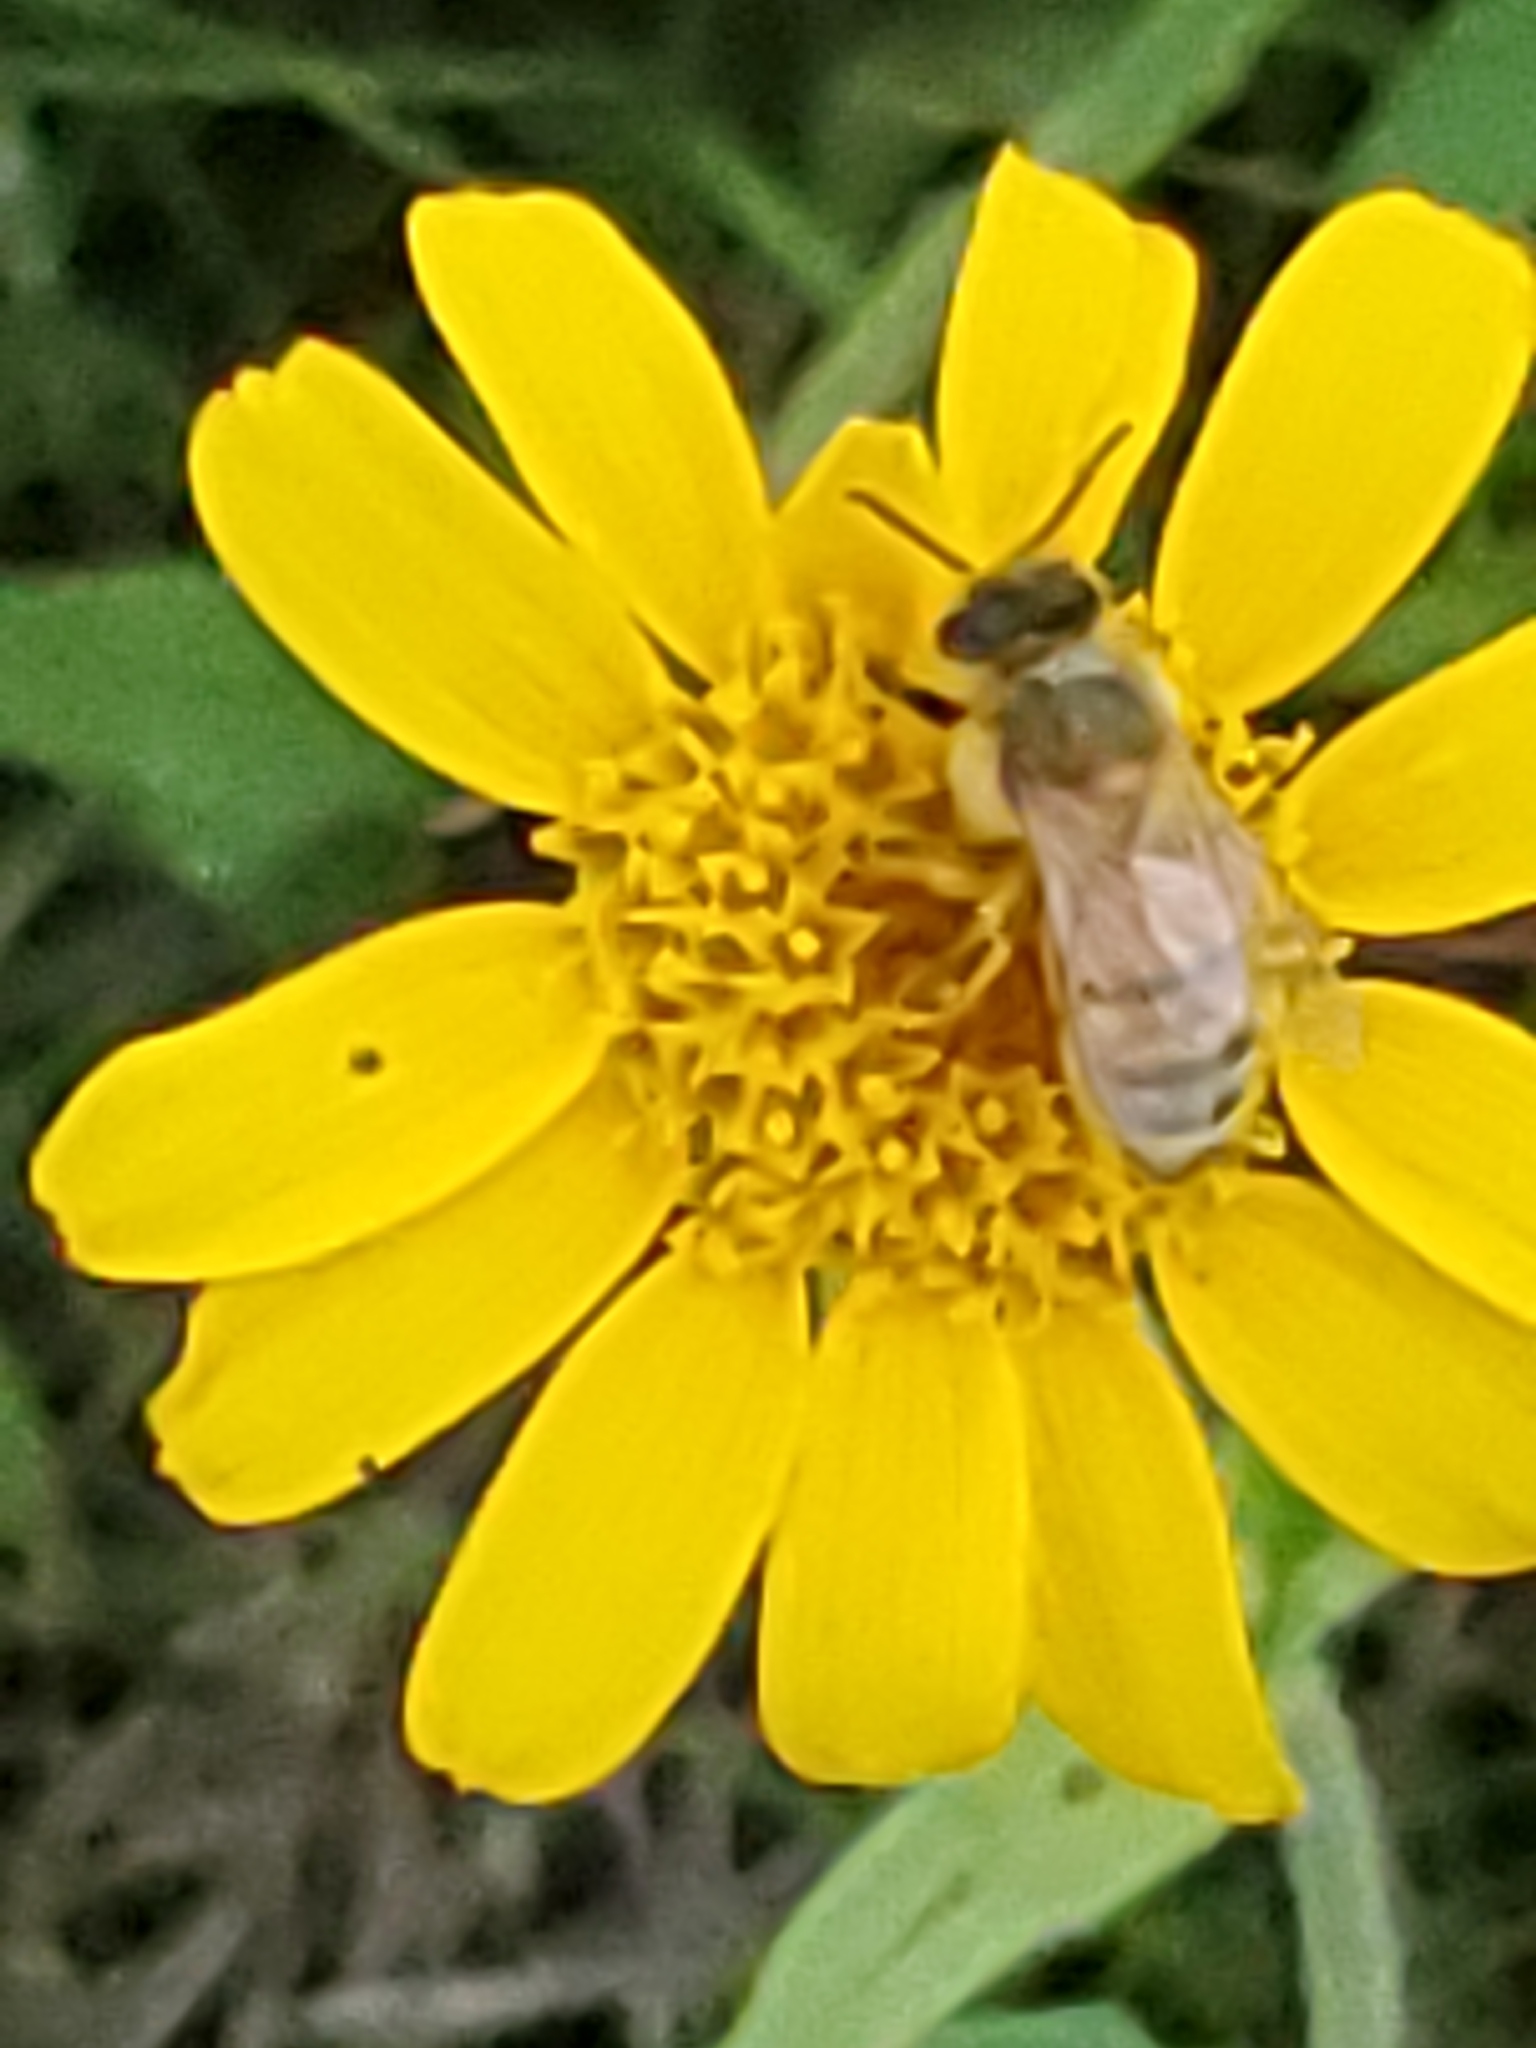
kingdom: Animalia
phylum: Arthropoda
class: Insecta
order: Hymenoptera
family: Apidae
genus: Apis
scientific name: Apis mellifera
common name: Honey bee
